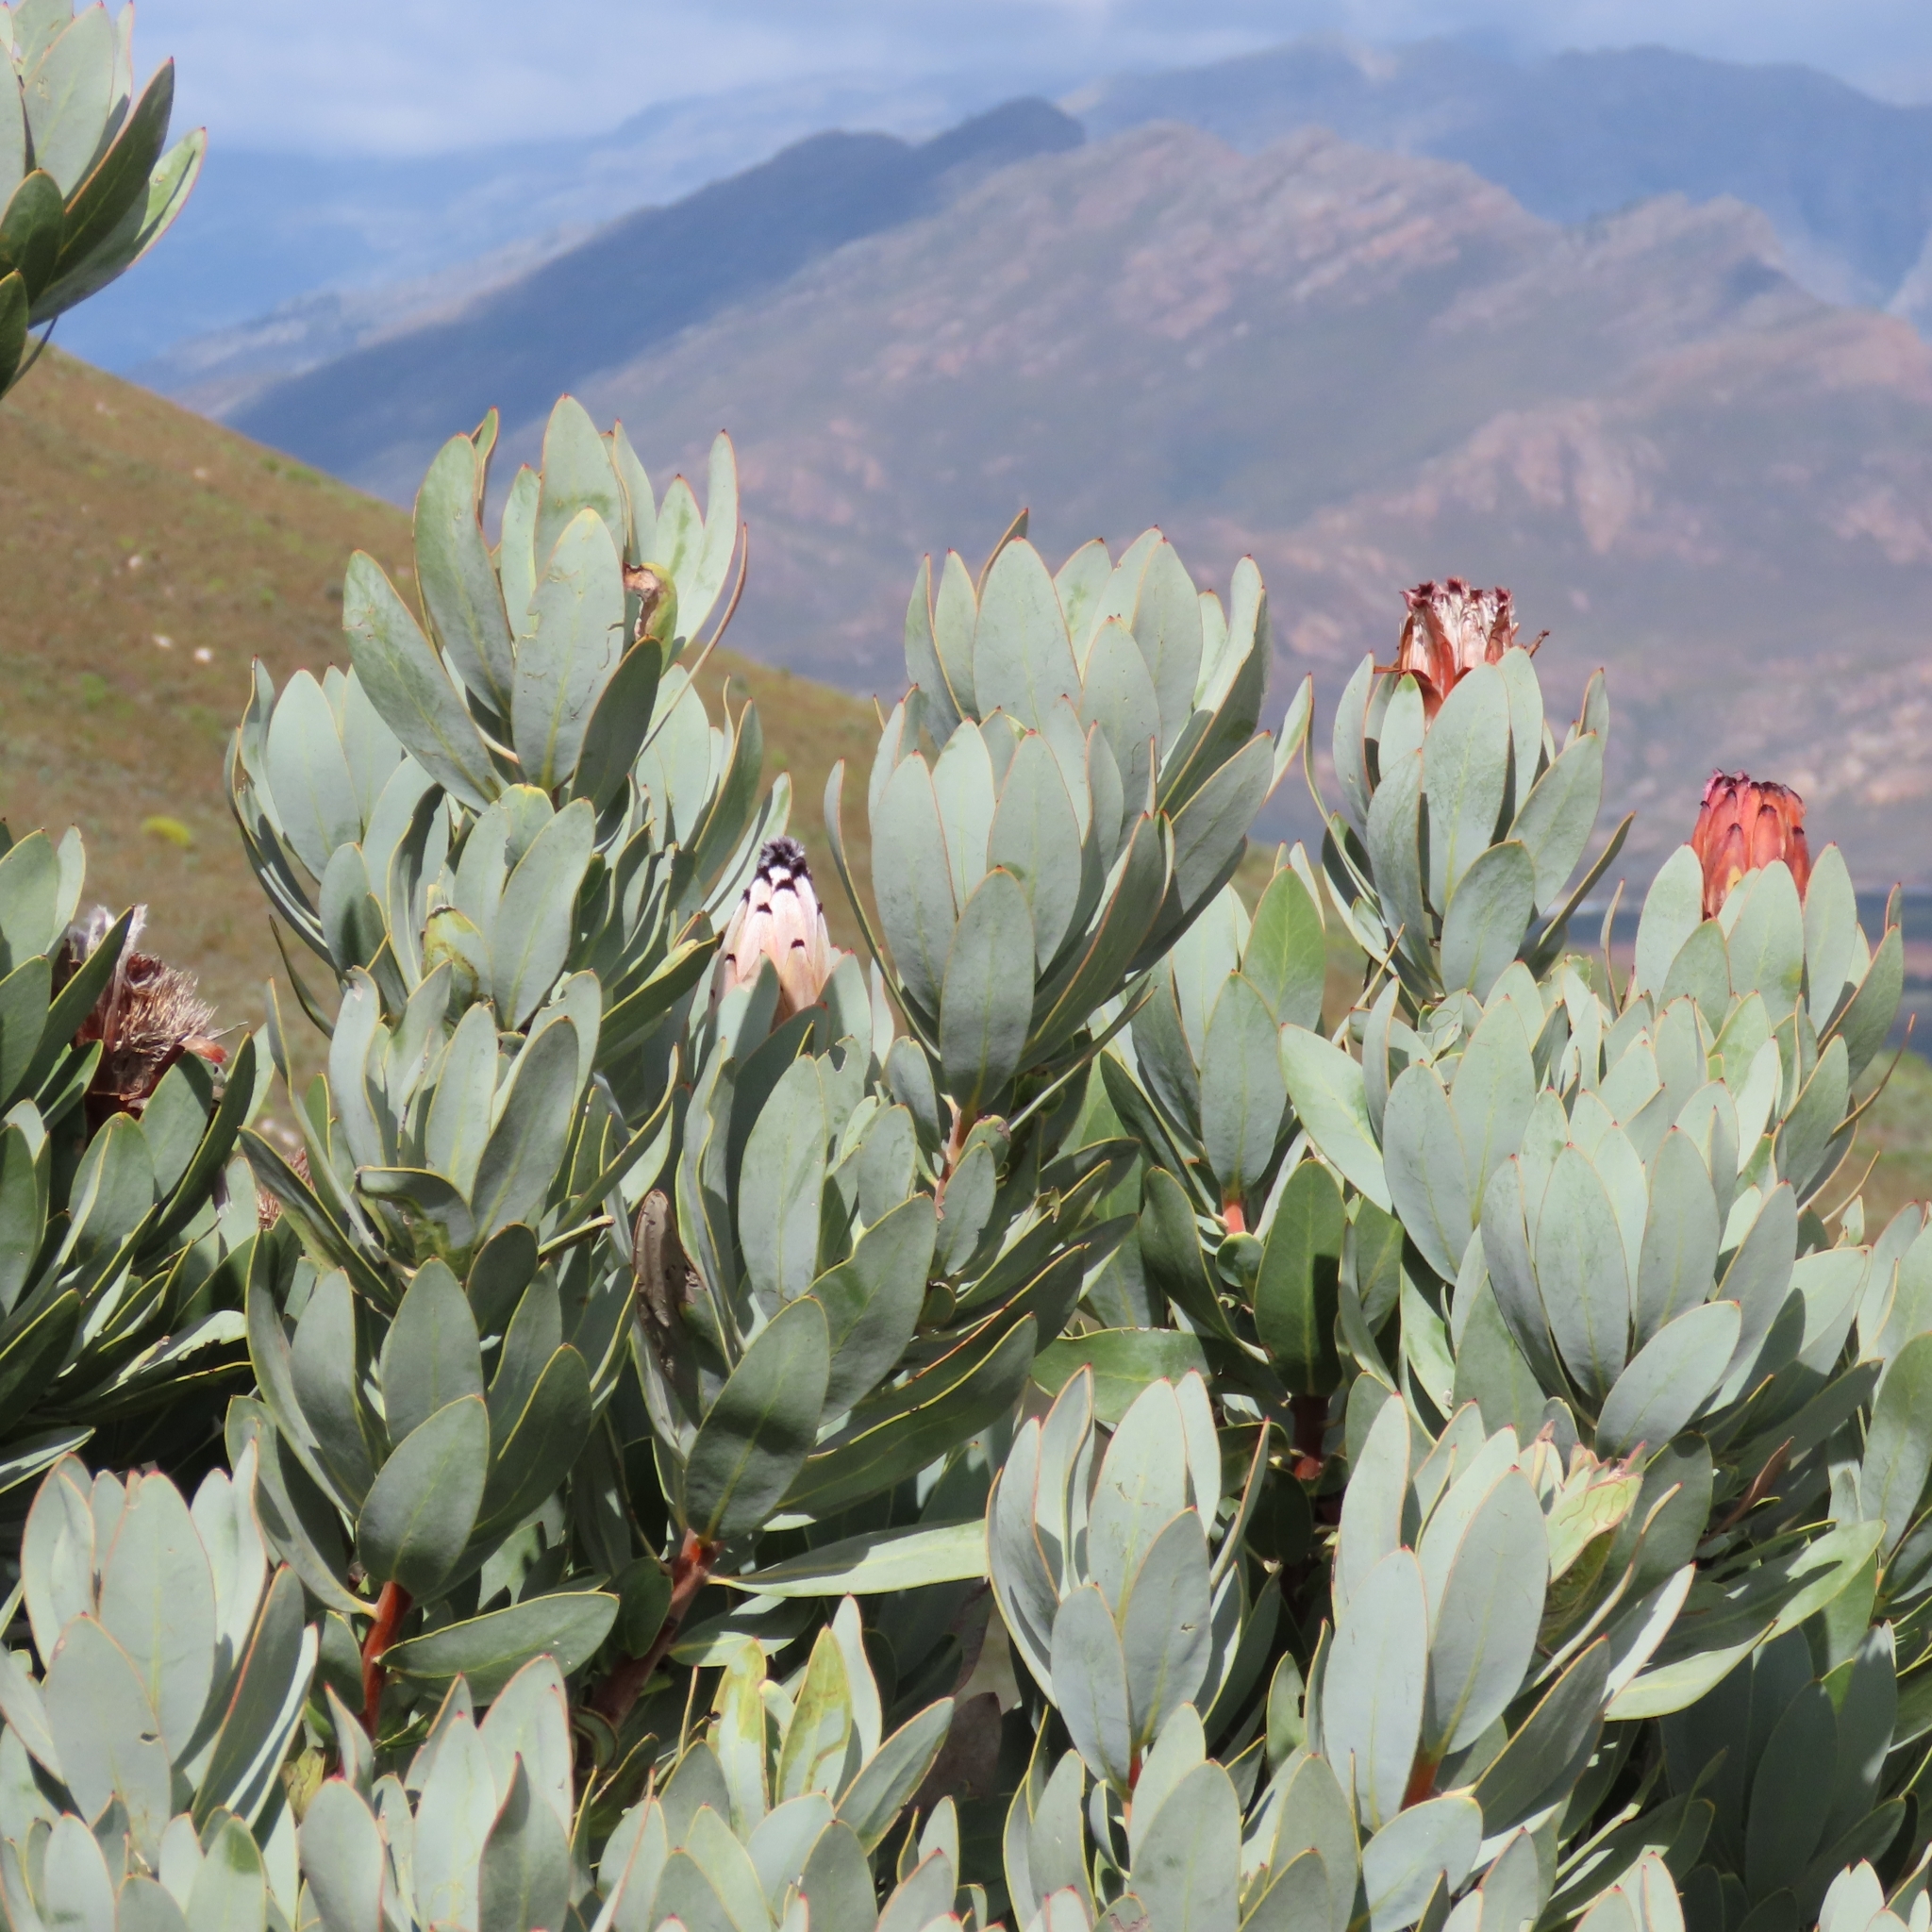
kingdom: Plantae
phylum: Tracheophyta
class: Magnoliopsida
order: Proteales
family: Proteaceae
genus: Protea
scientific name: Protea laurifolia
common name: Grey-leaf sugarbsh
